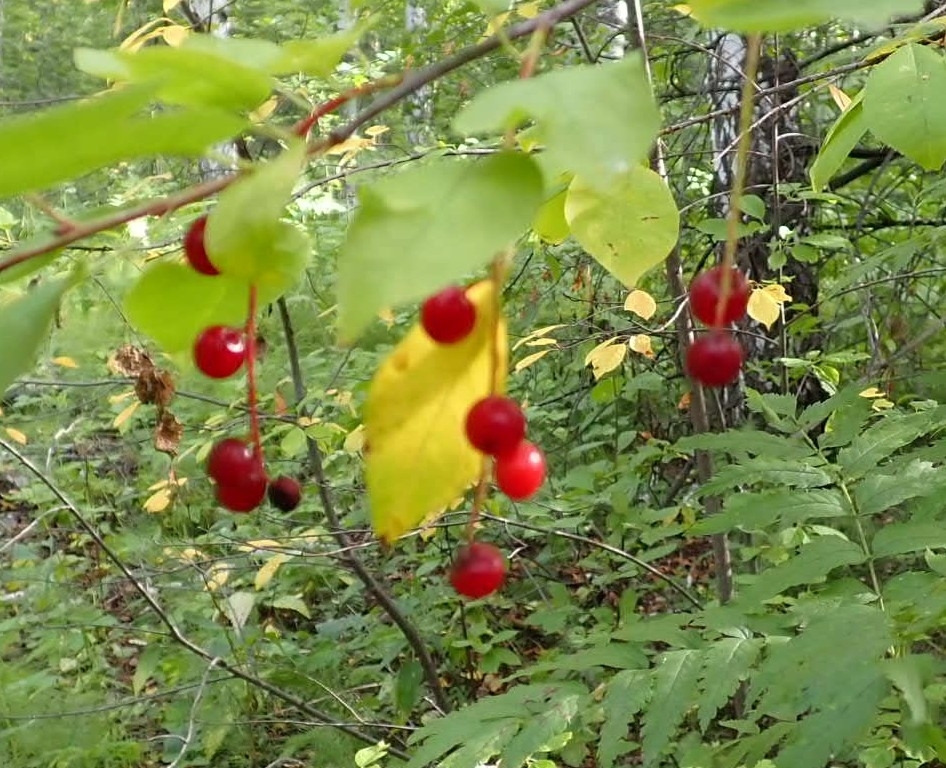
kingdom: Plantae
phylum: Tracheophyta
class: Magnoliopsida
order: Rosales
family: Rosaceae
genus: Prunus
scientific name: Prunus virginiana
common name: Chokecherry
